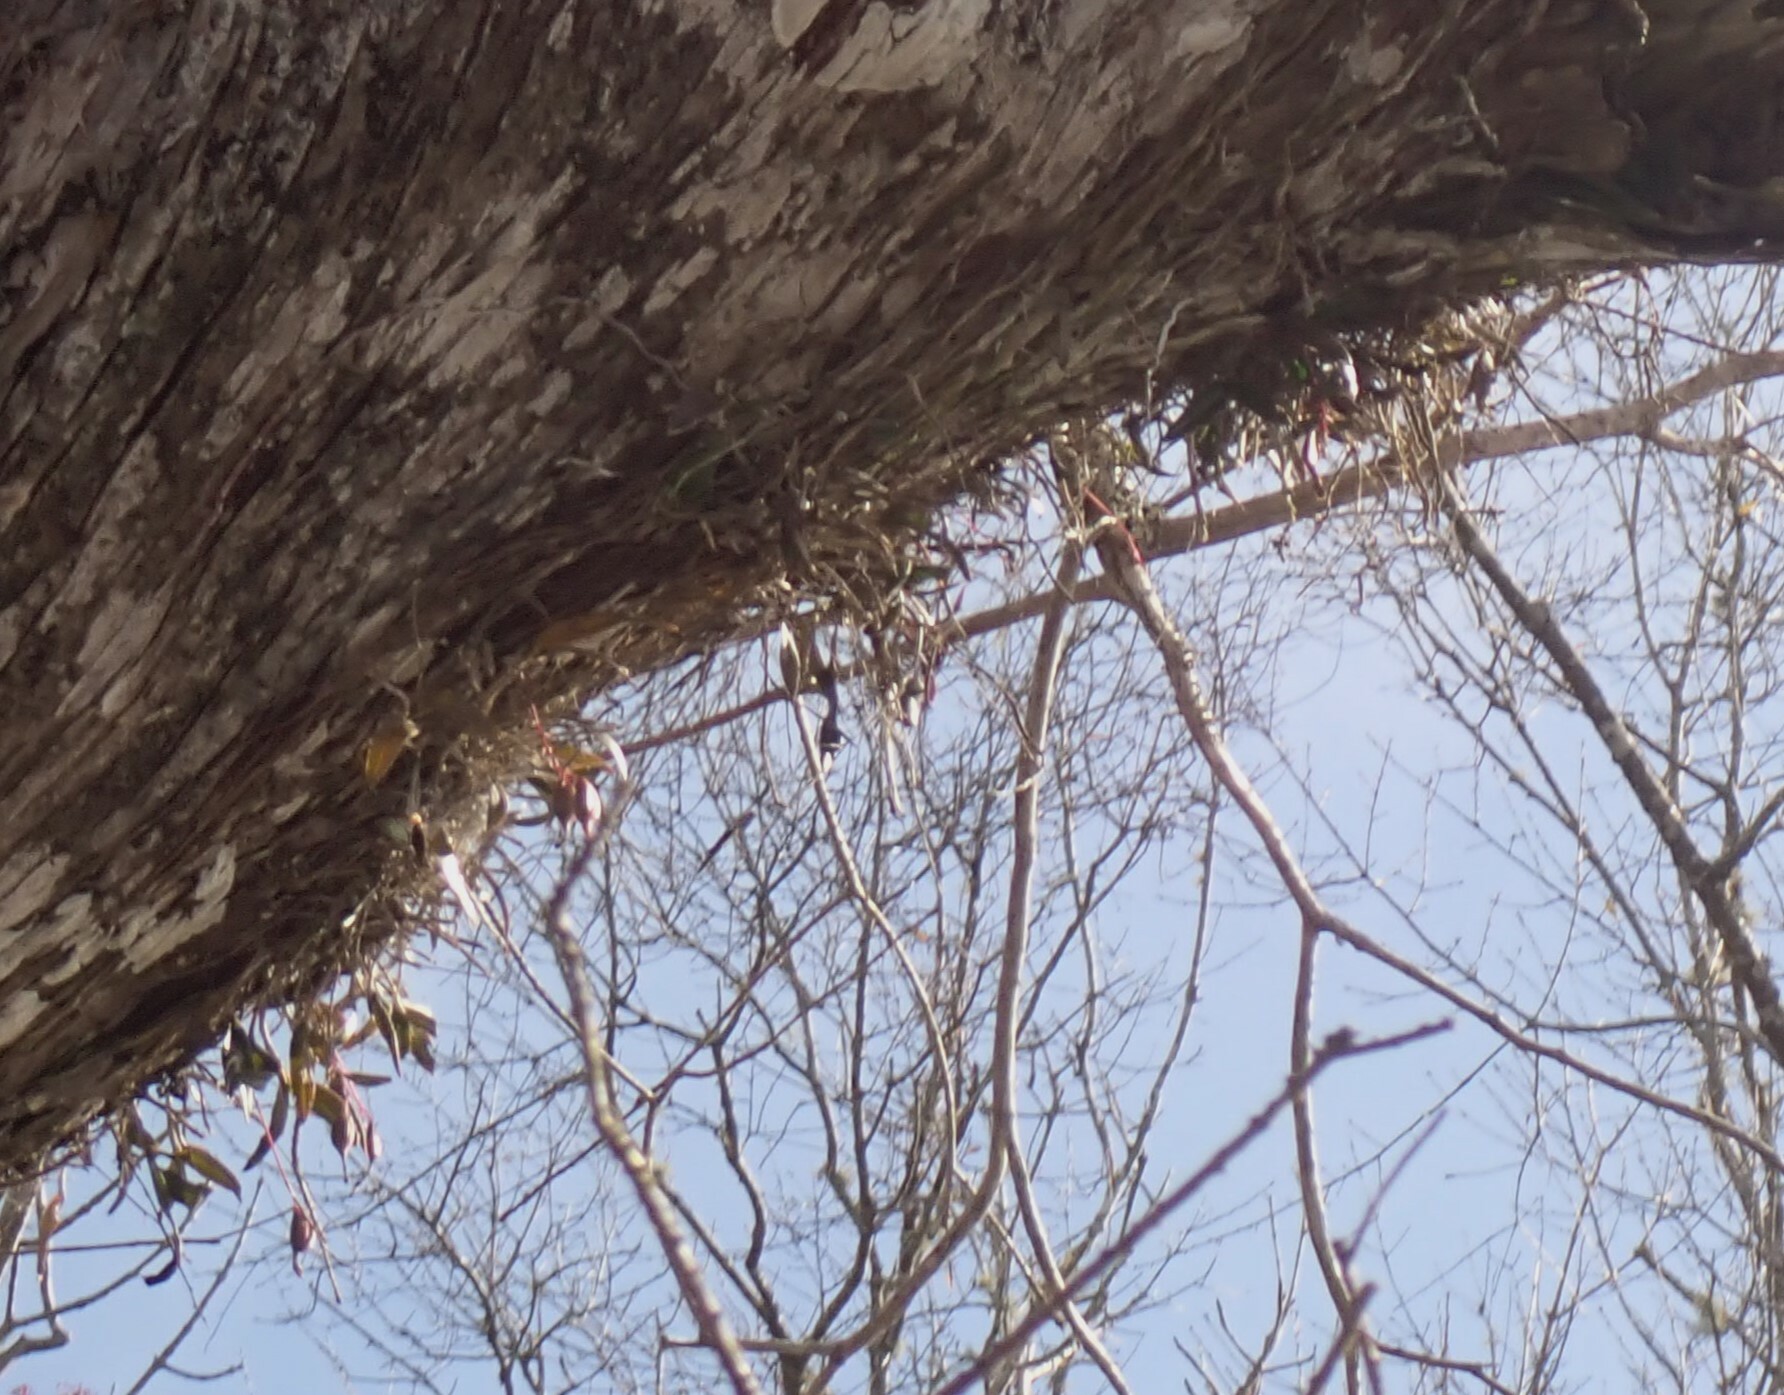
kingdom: Plantae
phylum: Tracheophyta
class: Liliopsida
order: Asparagales
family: Orchidaceae
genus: Epidendrum
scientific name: Epidendrum conopseum
